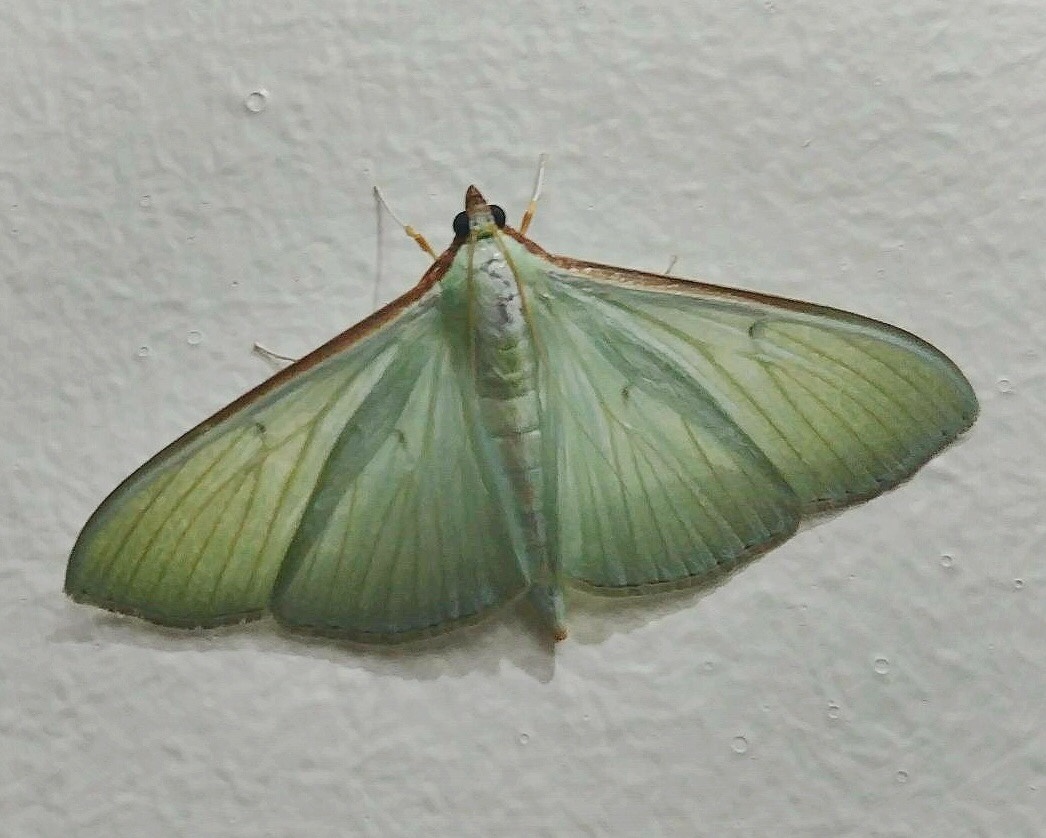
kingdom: Animalia
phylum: Arthropoda
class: Insecta
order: Lepidoptera
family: Crambidae
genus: Stemorrhages
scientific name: Stemorrhages sericea
